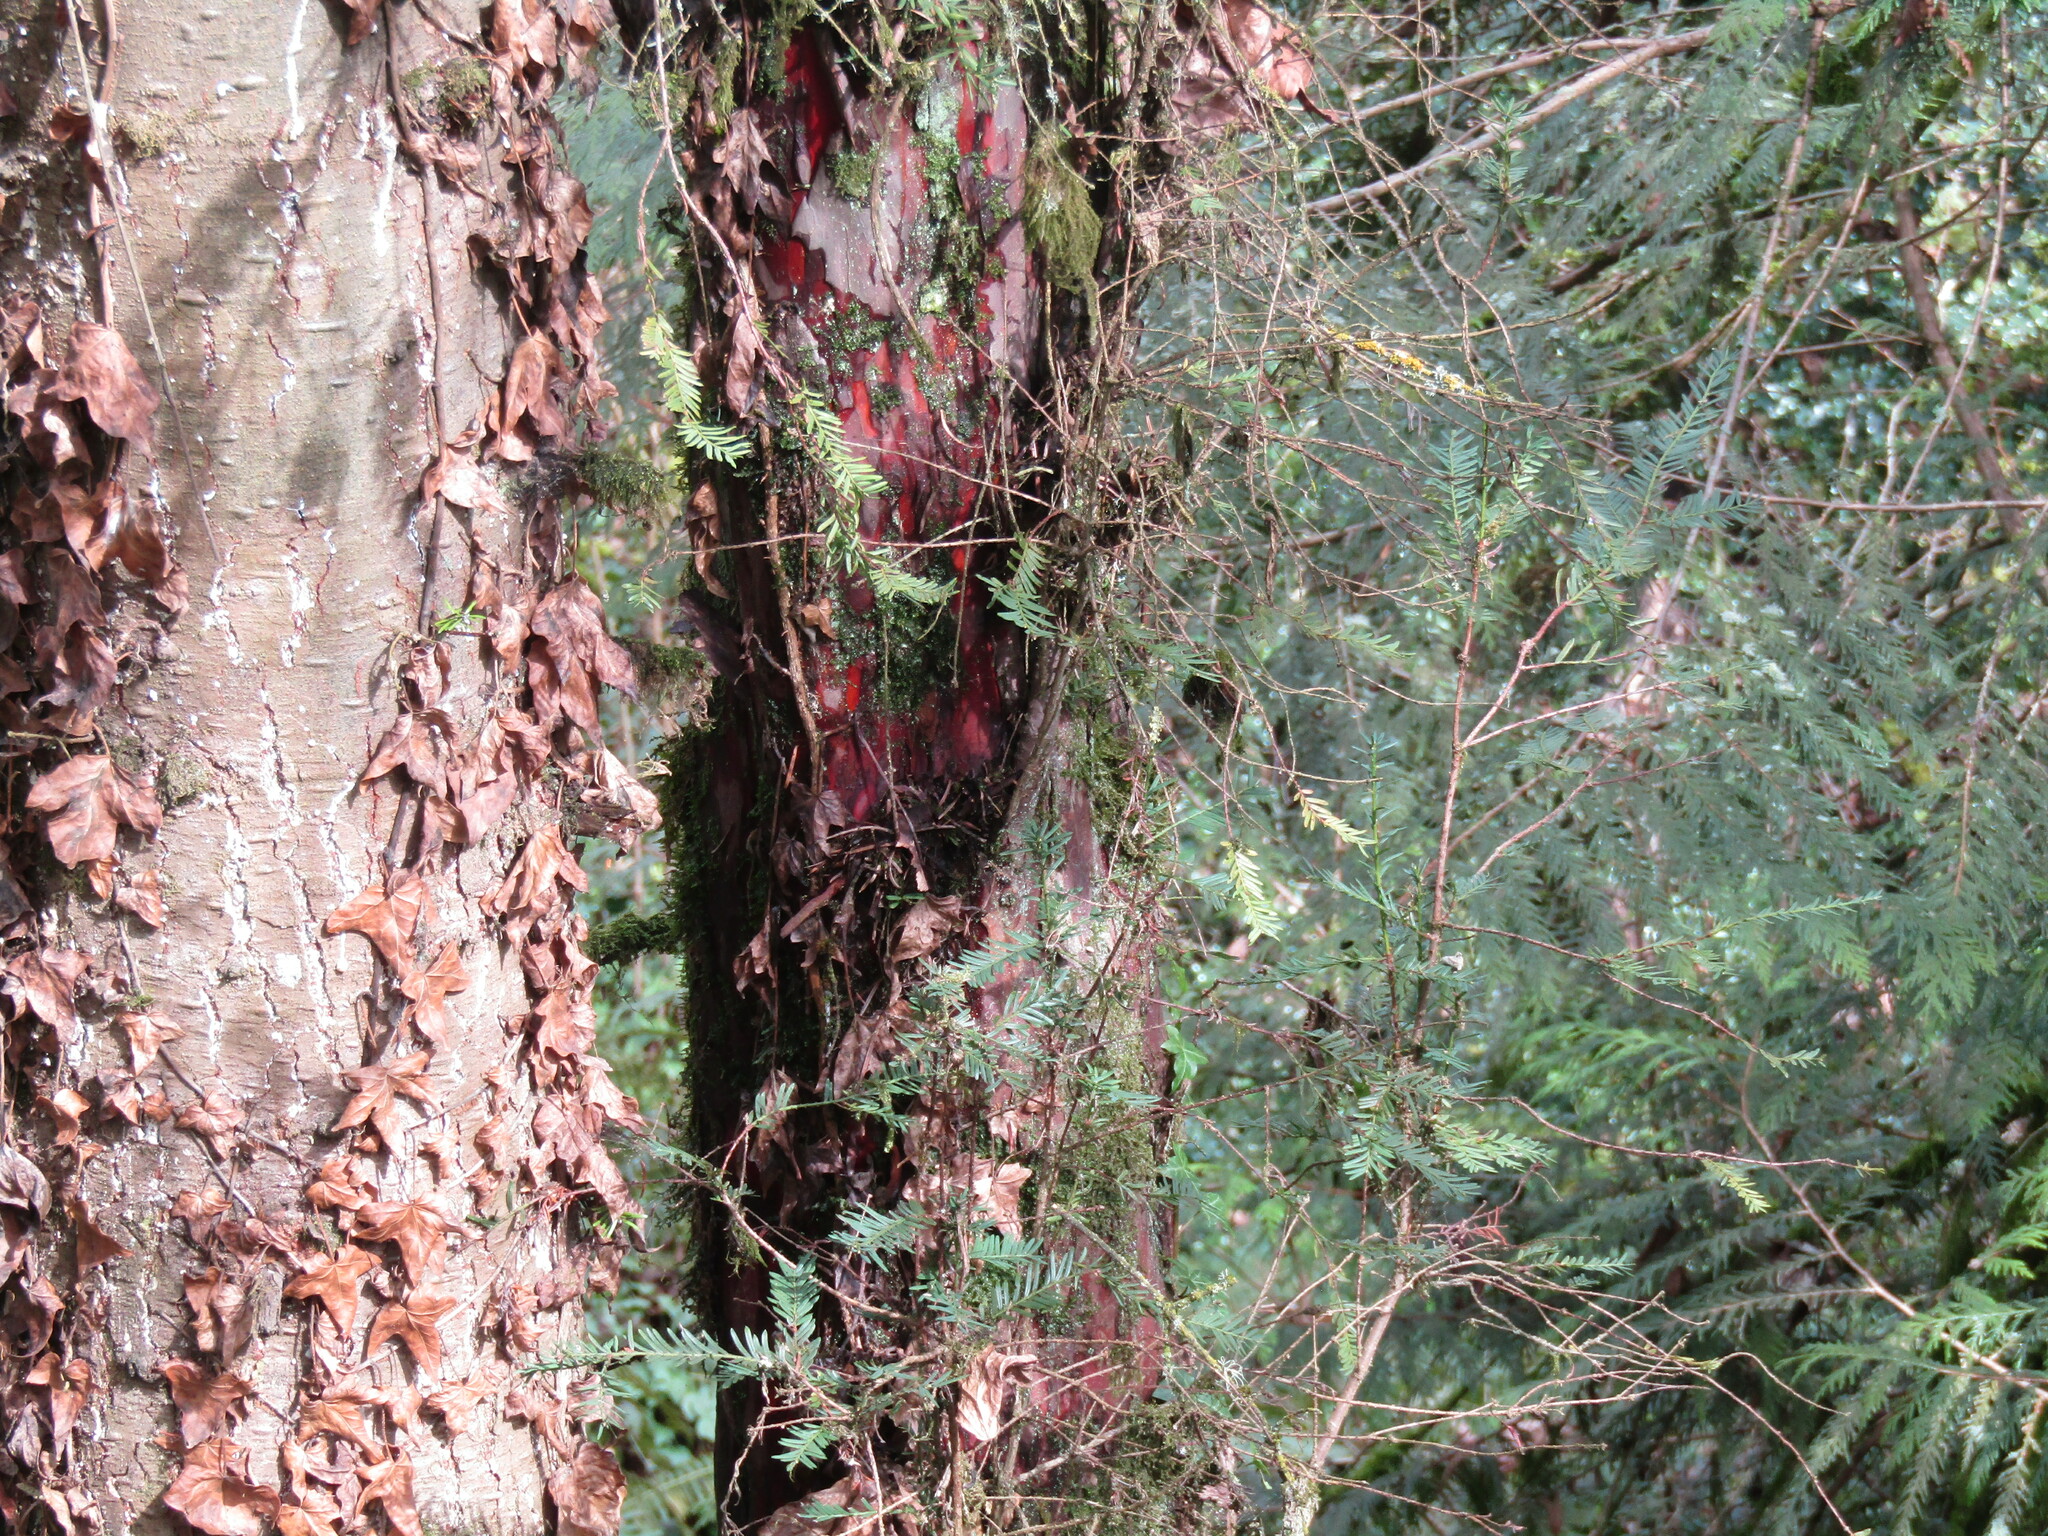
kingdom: Plantae
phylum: Tracheophyta
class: Pinopsida
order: Pinales
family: Taxaceae
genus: Taxus
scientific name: Taxus brevifolia
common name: Pacific yew
